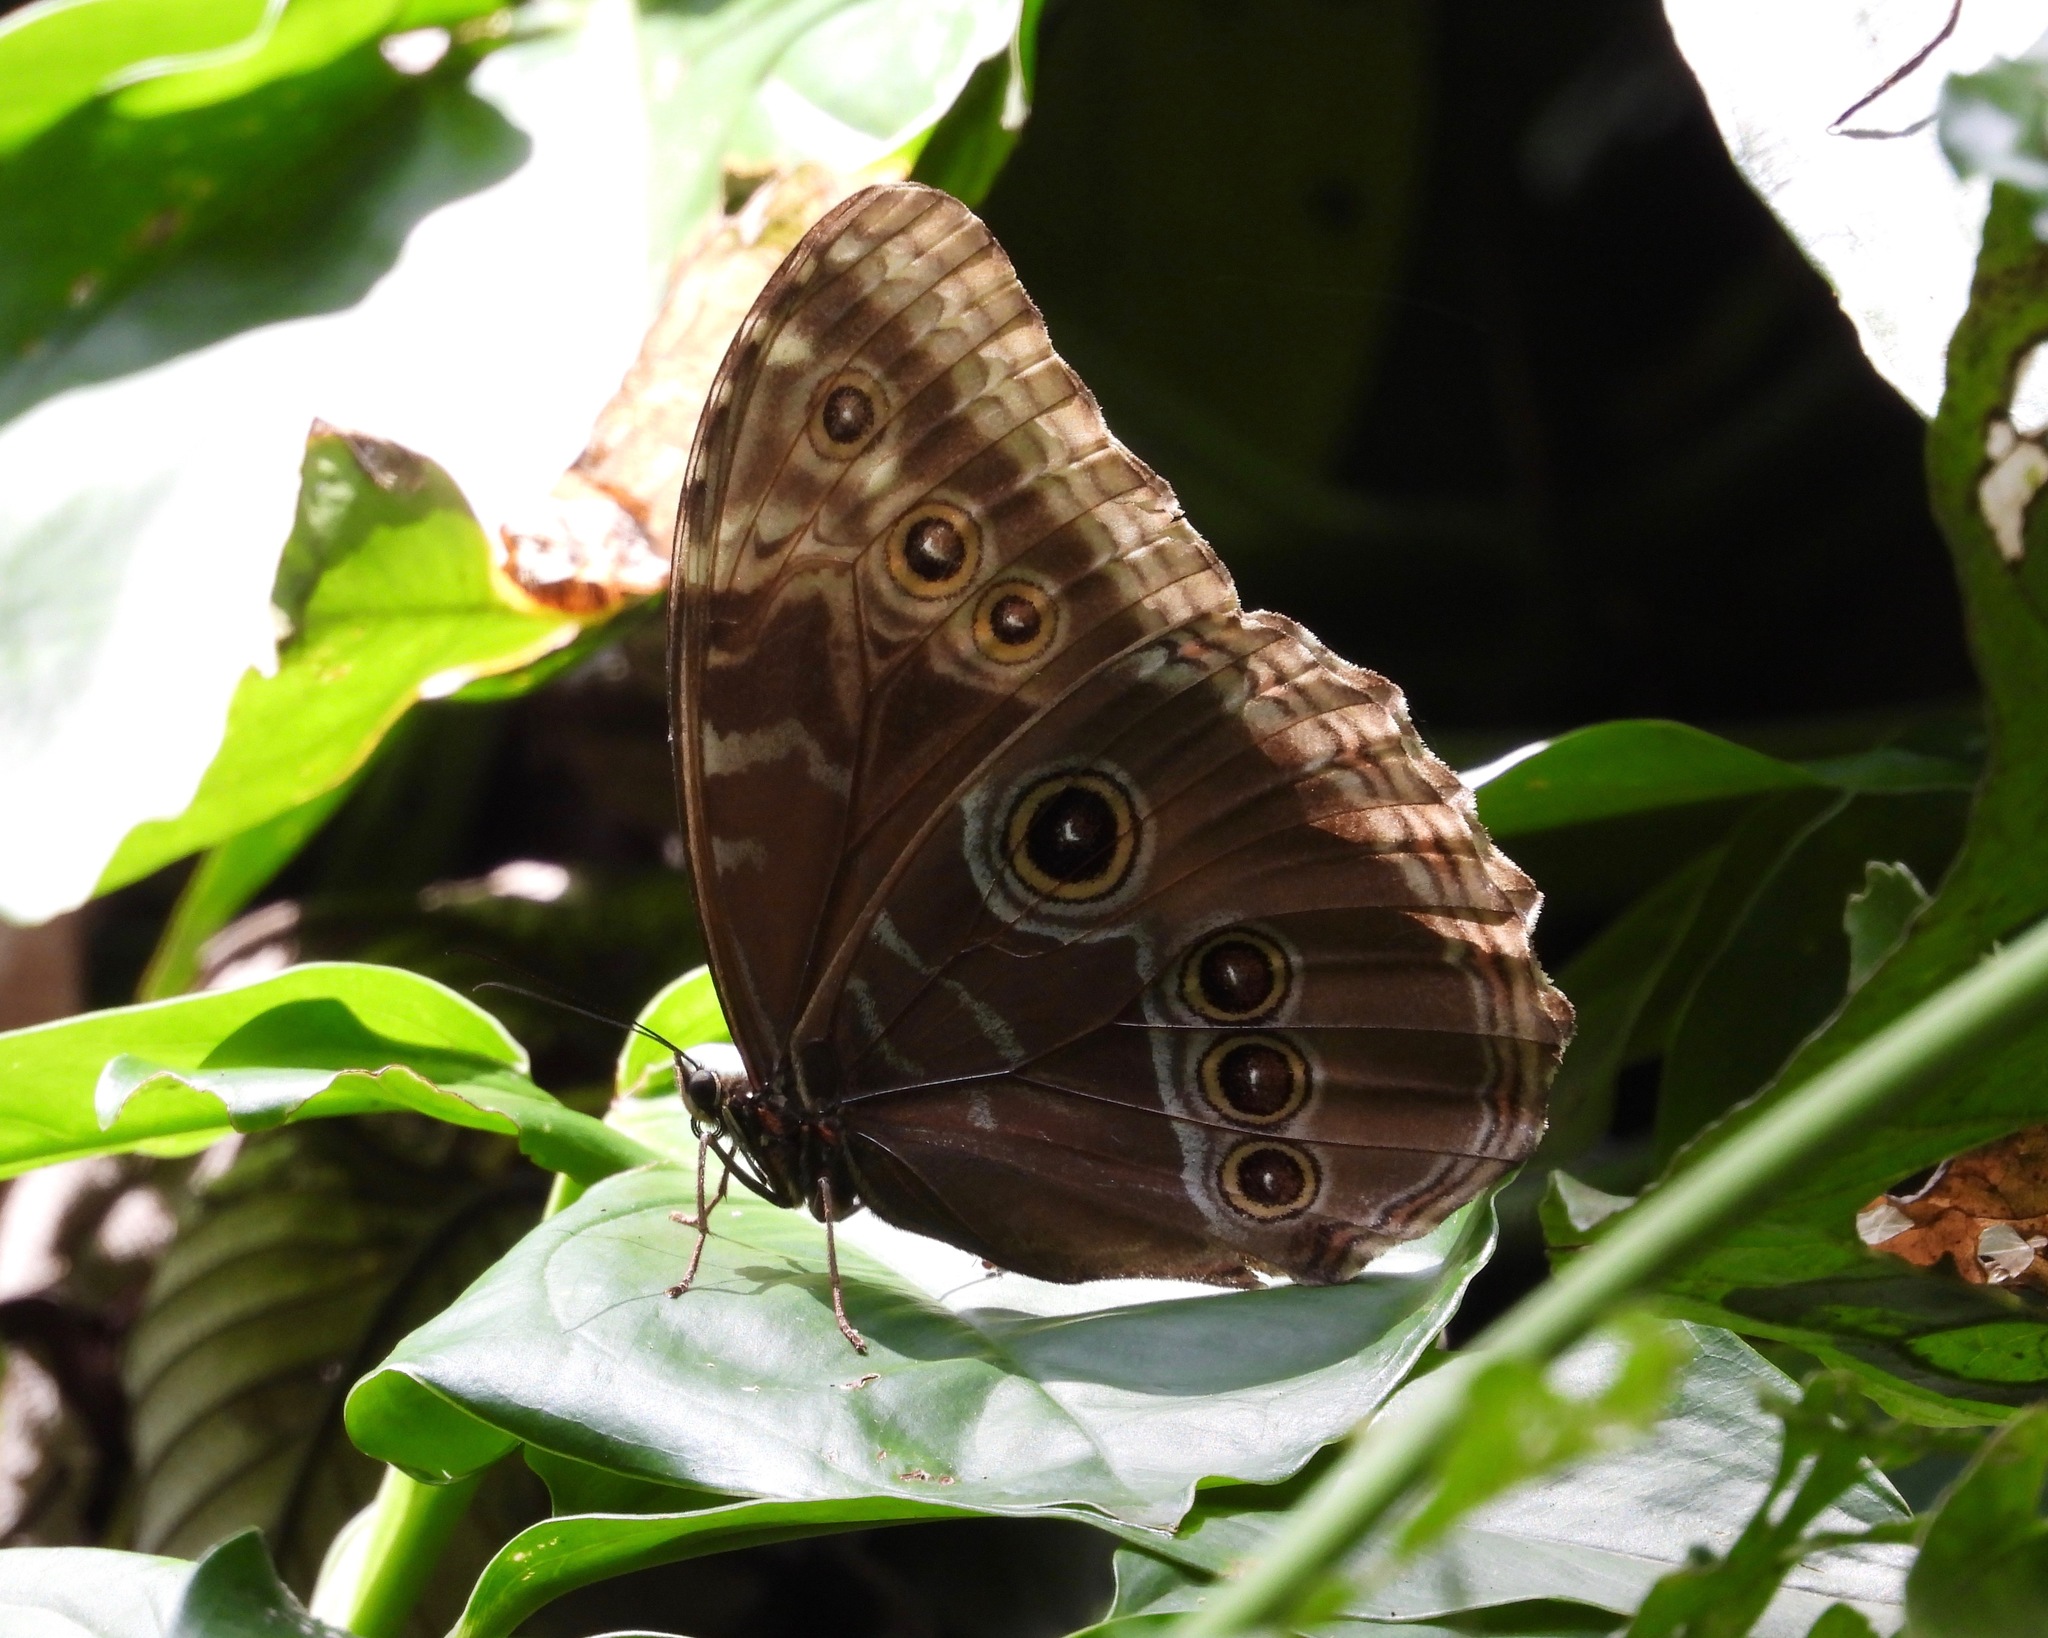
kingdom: Animalia
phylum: Arthropoda
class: Insecta
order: Lepidoptera
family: Nymphalidae
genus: Morpho
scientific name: Morpho helenor
